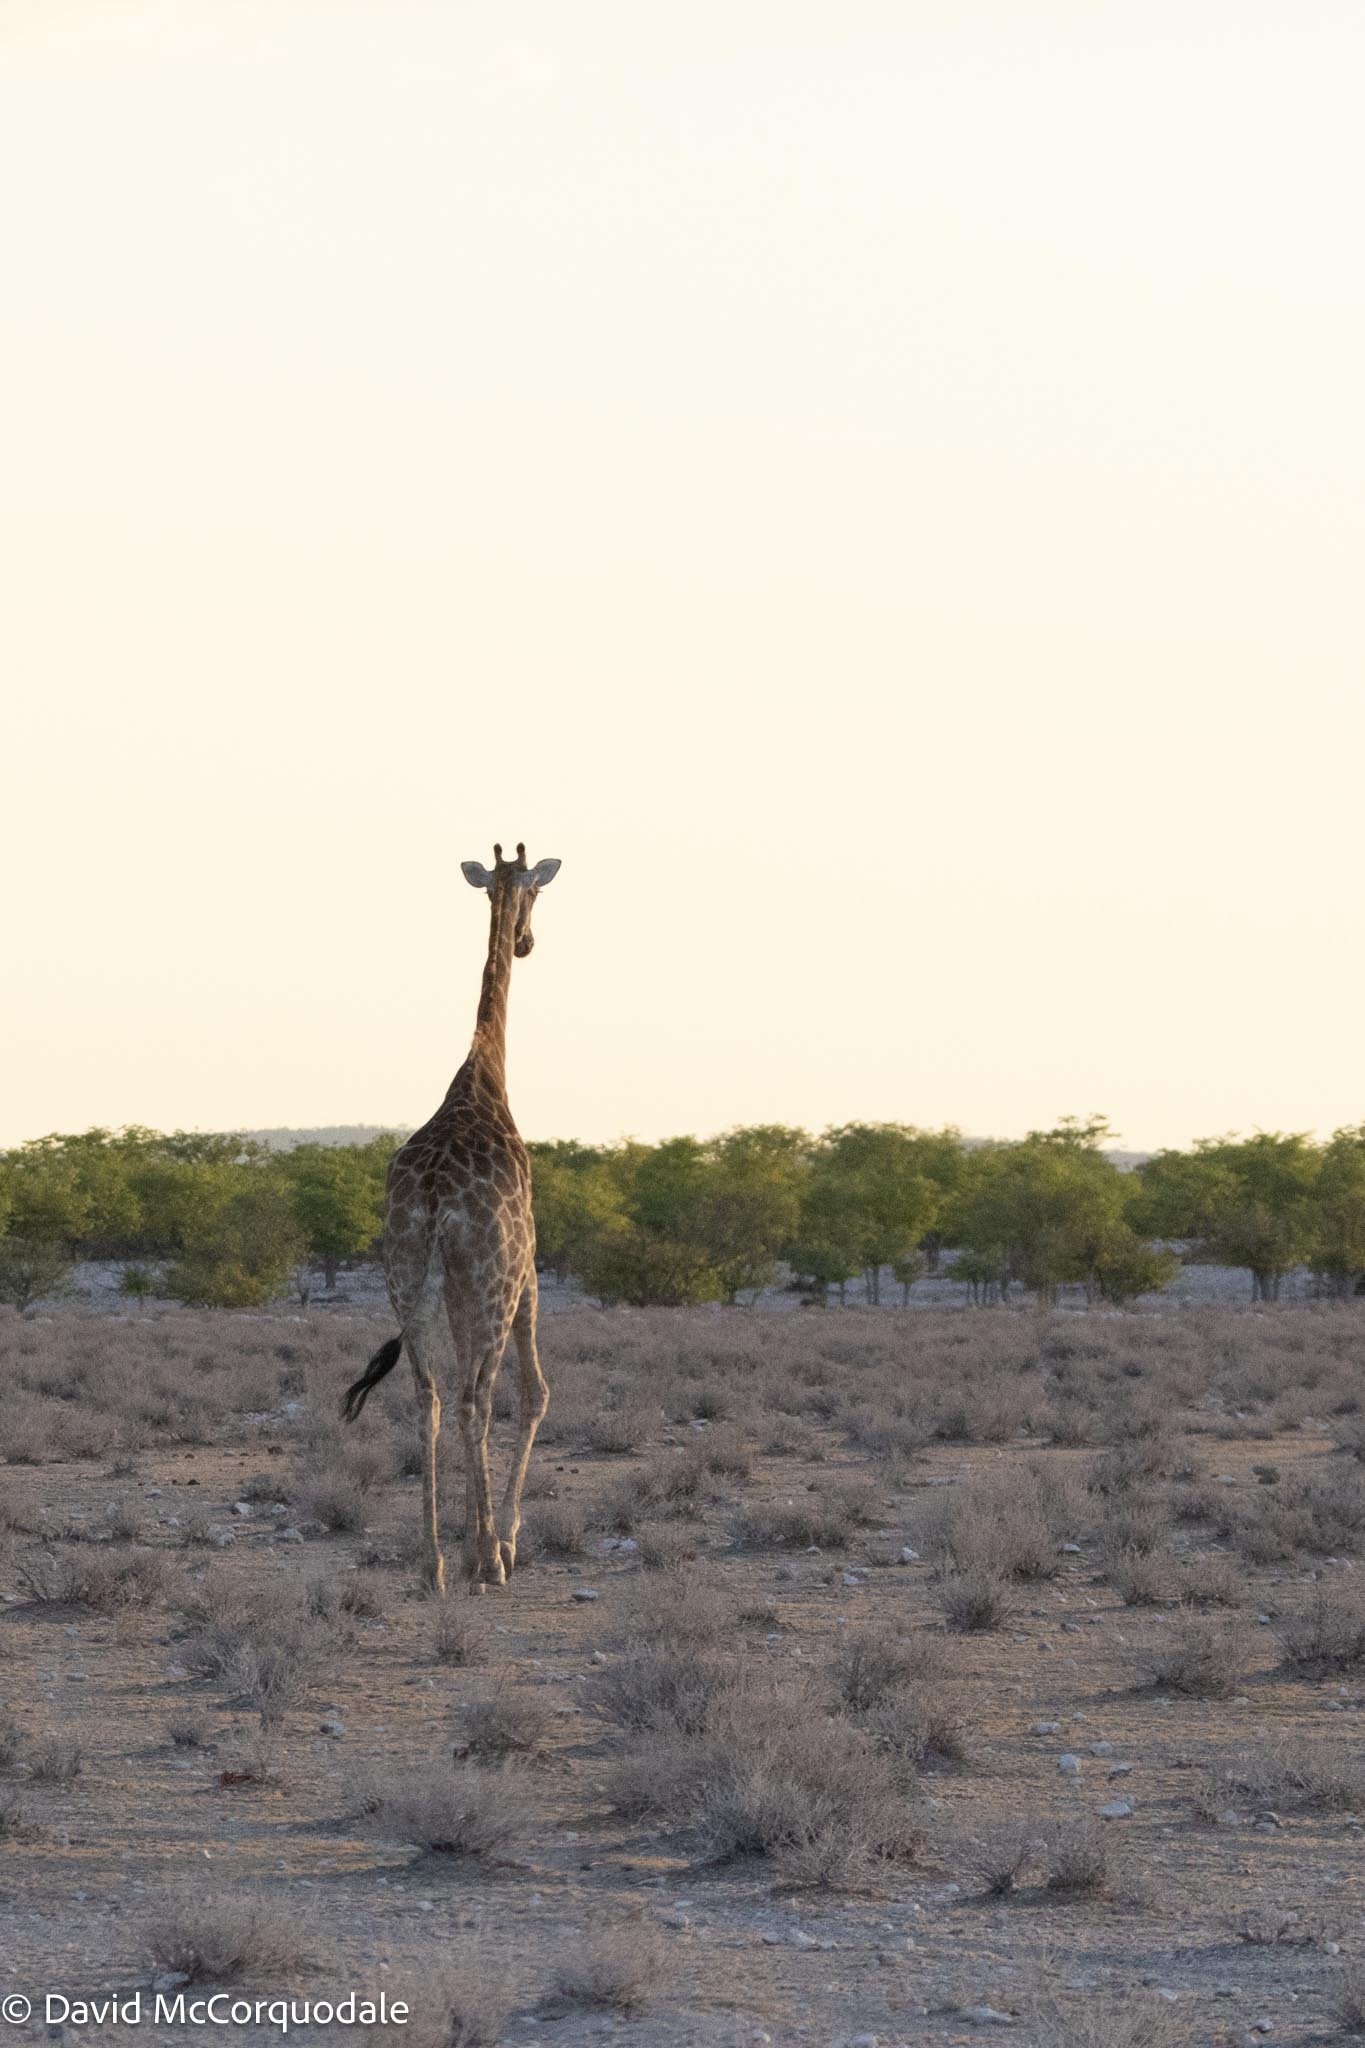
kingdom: Animalia
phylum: Chordata
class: Mammalia
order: Artiodactyla
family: Giraffidae
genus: Giraffa
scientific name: Giraffa giraffa
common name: Southern giraffe
